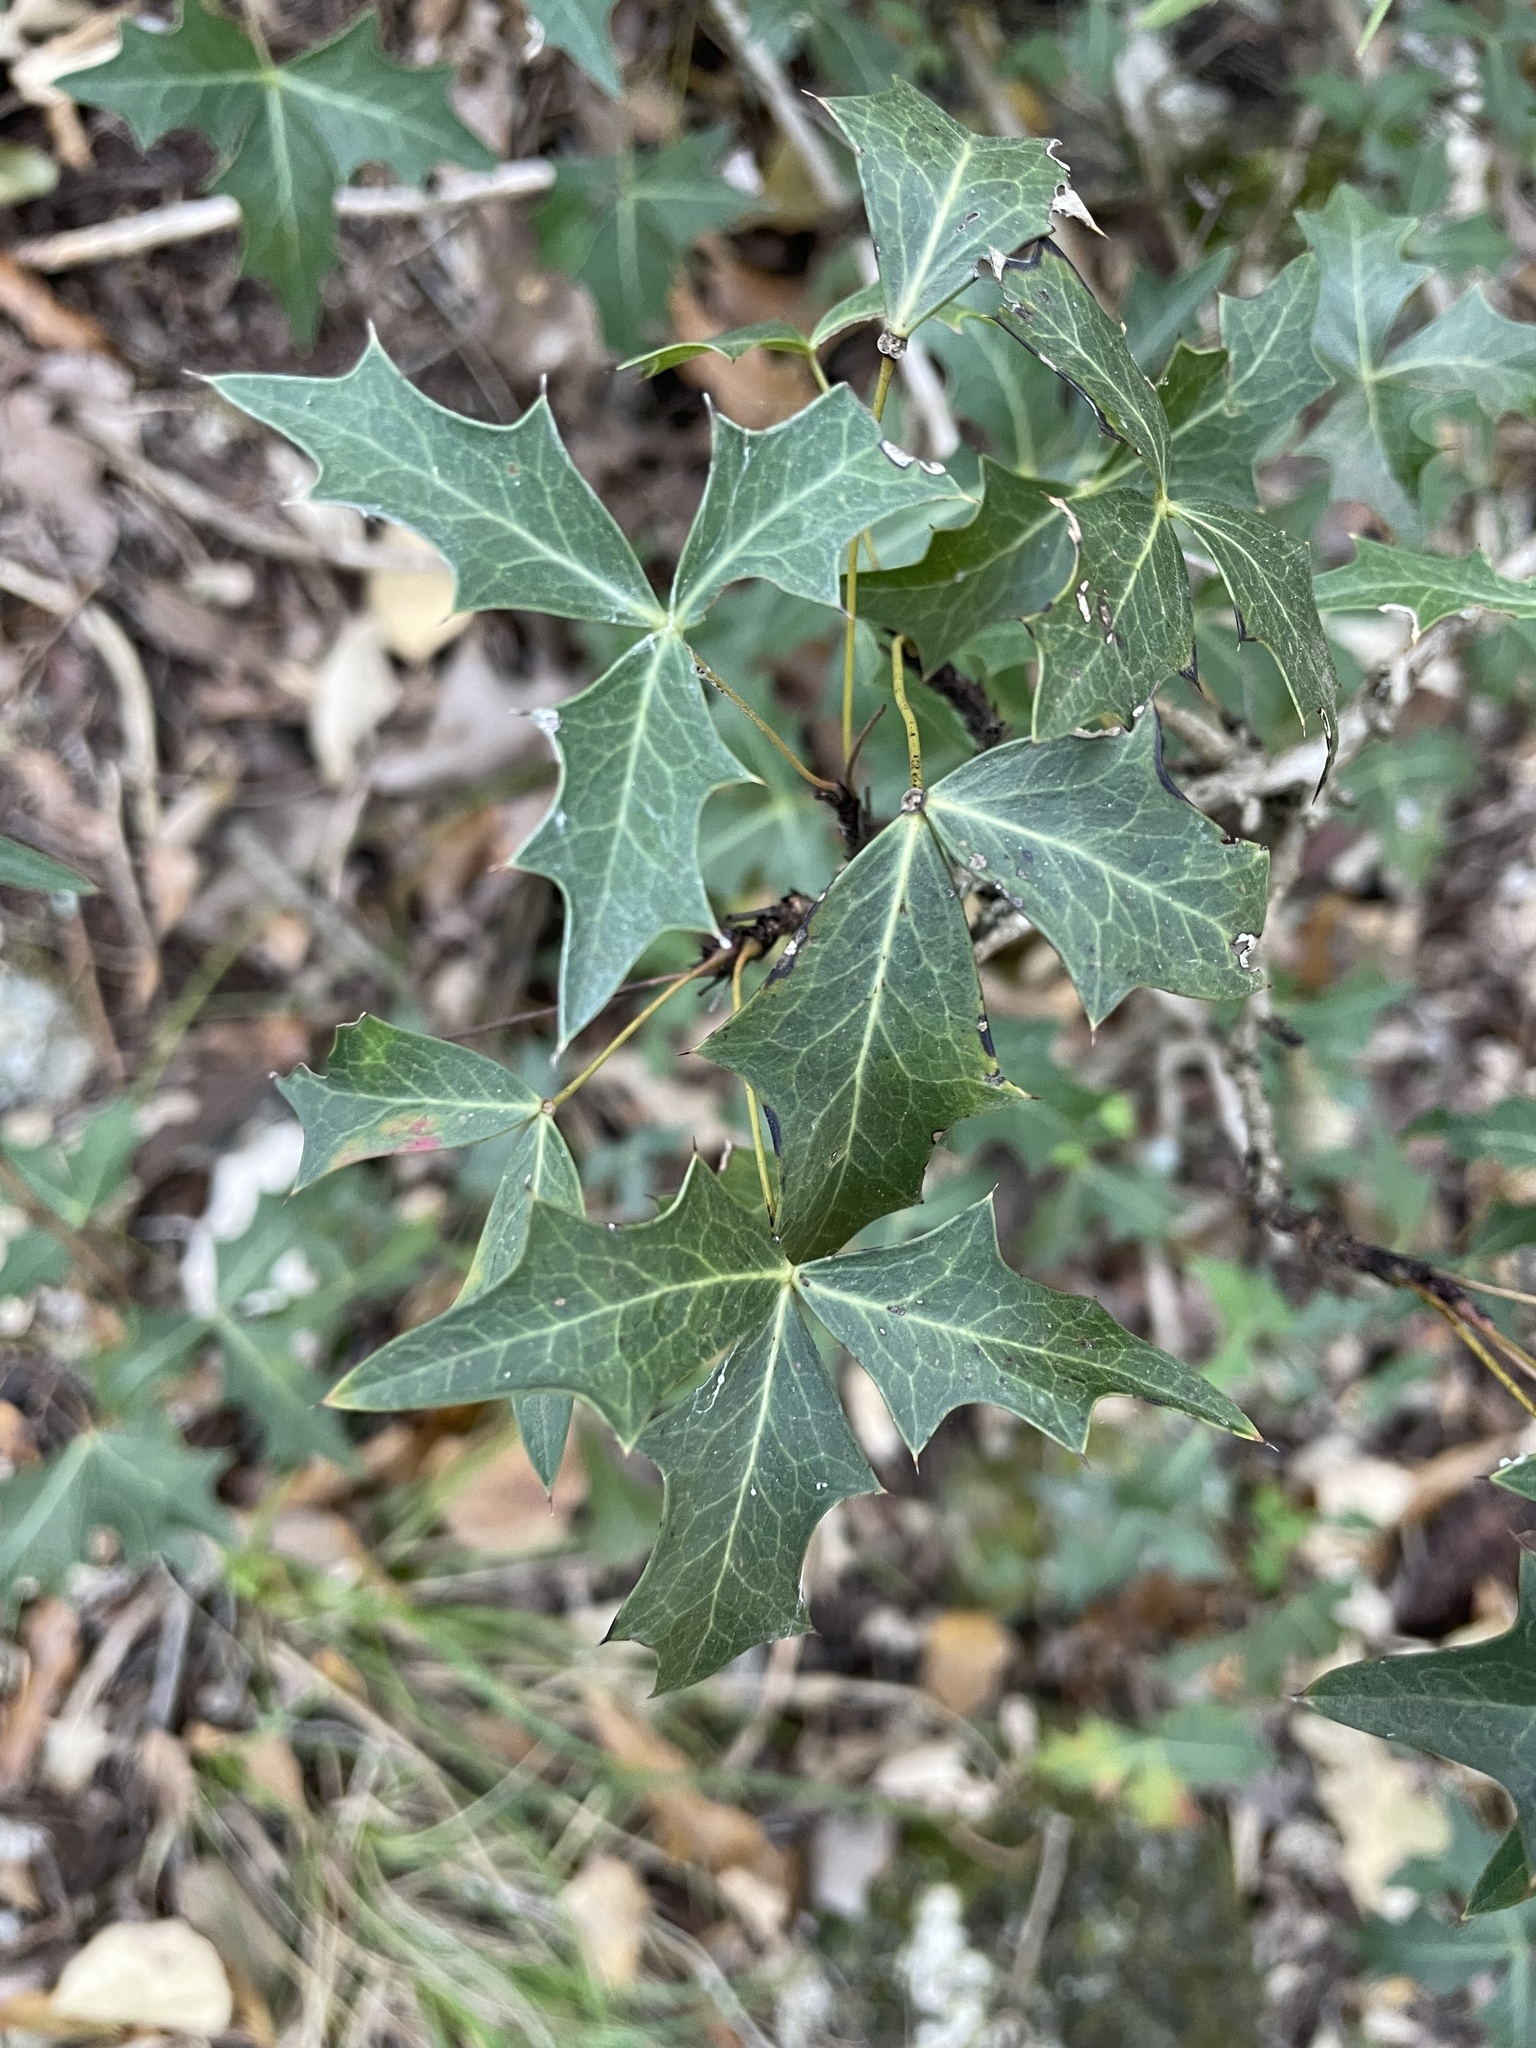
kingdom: Plantae
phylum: Tracheophyta
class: Magnoliopsida
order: Ranunculales
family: Berberidaceae
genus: Alloberberis
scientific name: Alloberberis trifoliolata
